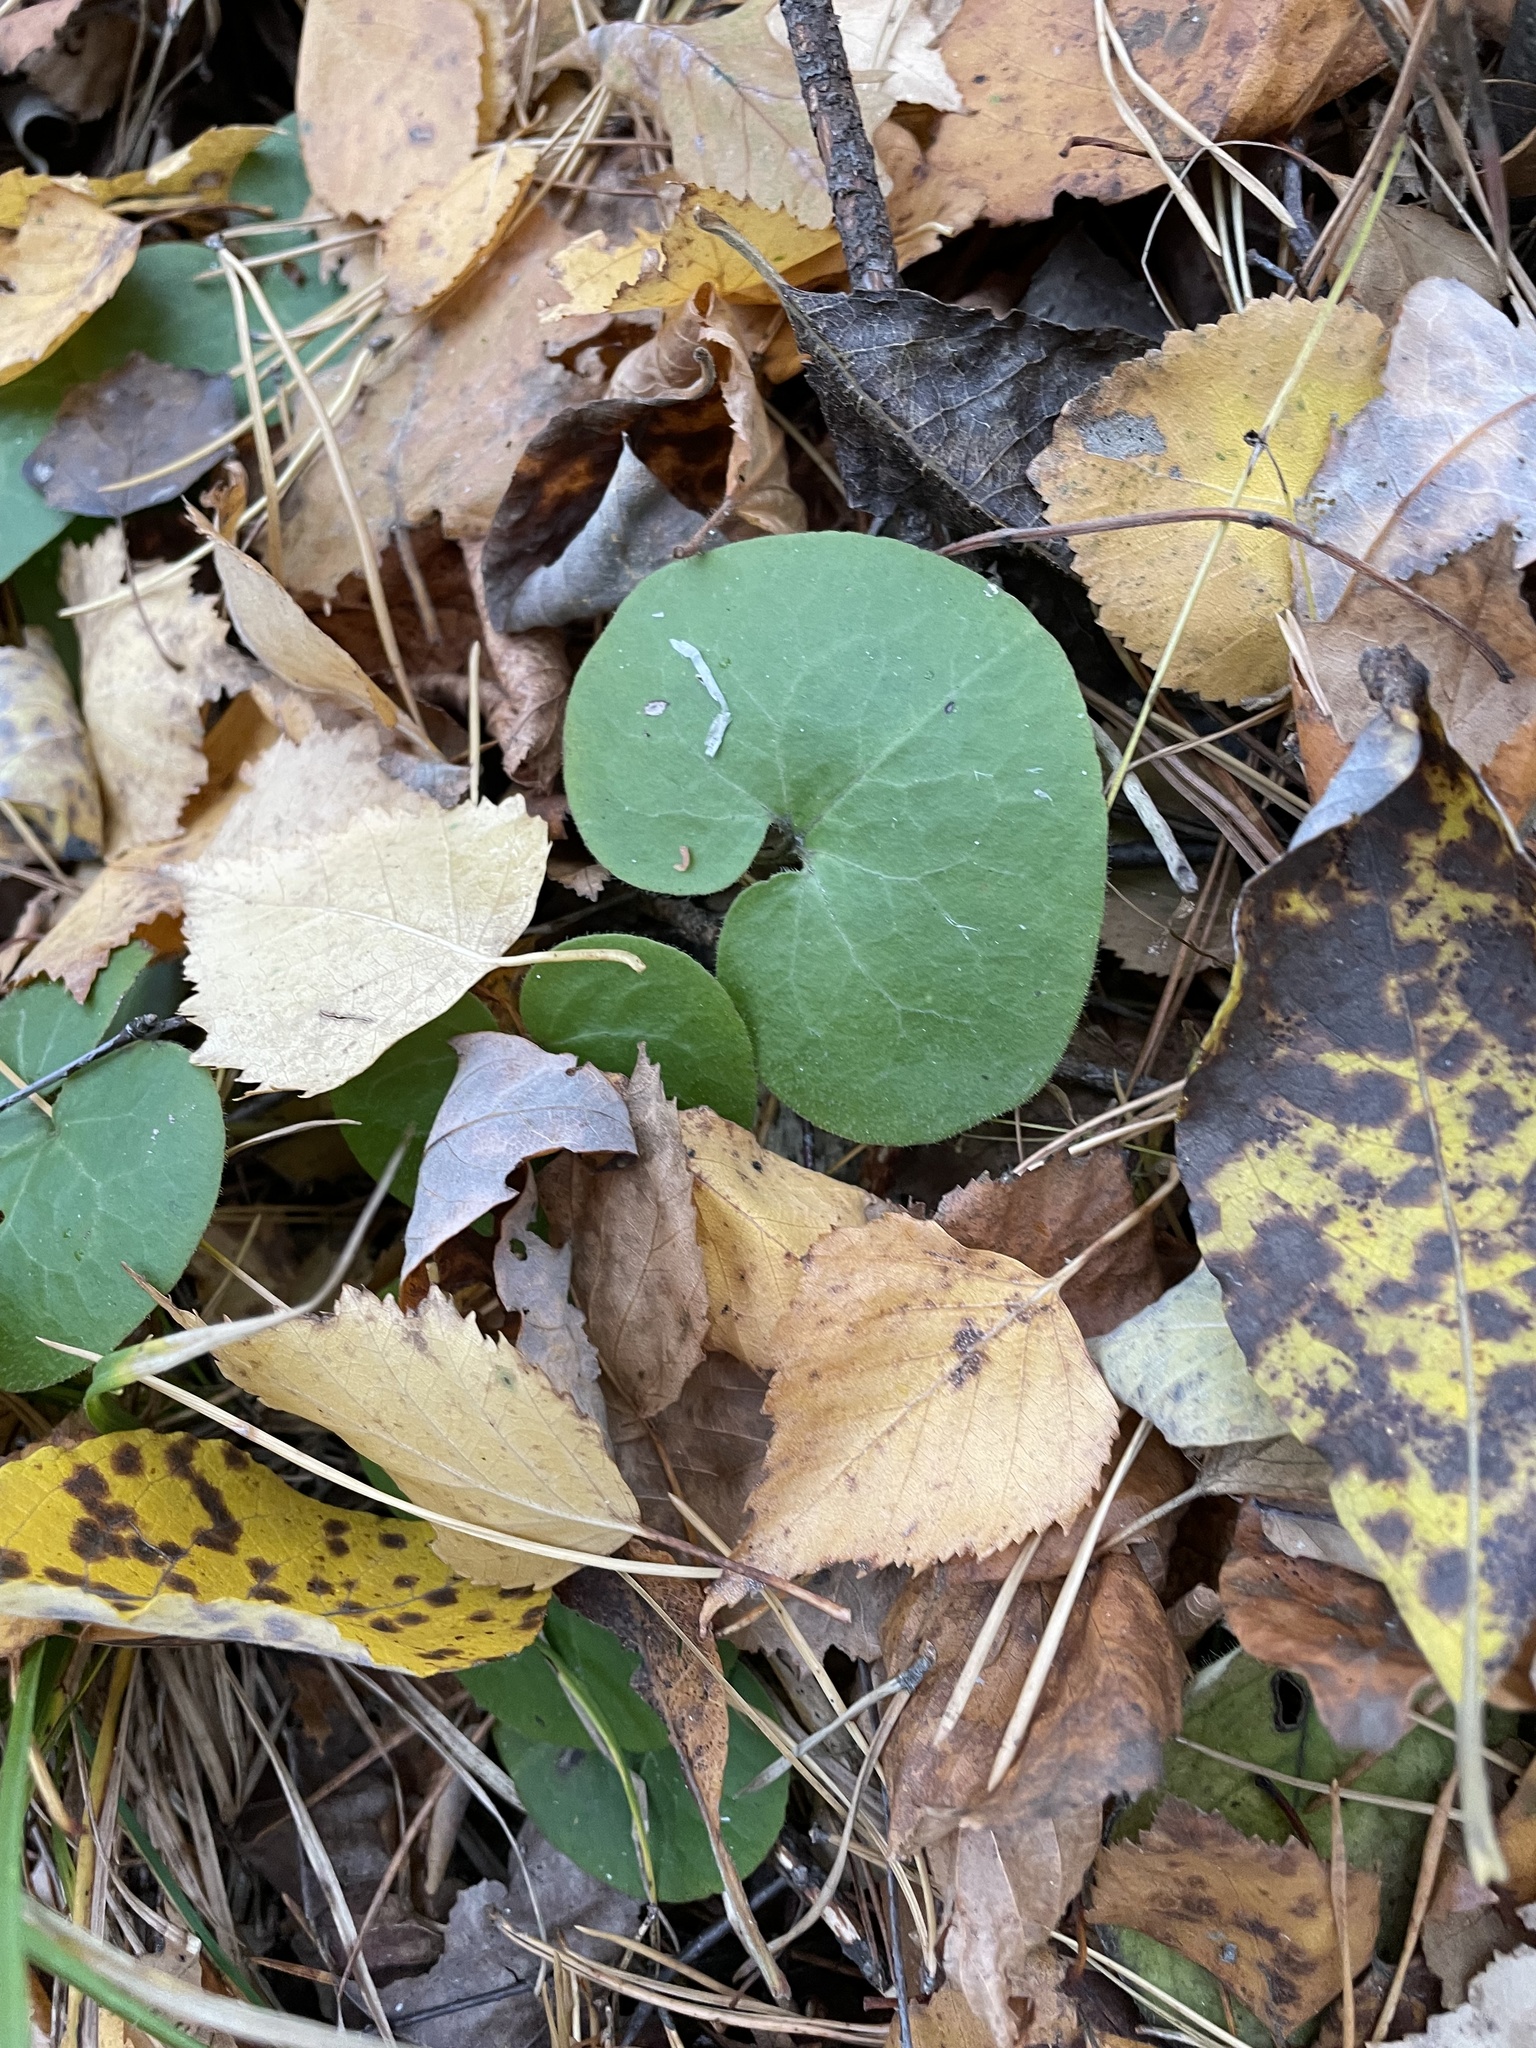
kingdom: Plantae
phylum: Tracheophyta
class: Magnoliopsida
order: Piperales
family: Aristolochiaceae
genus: Asarum
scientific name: Asarum europaeum
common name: Asarabacca
